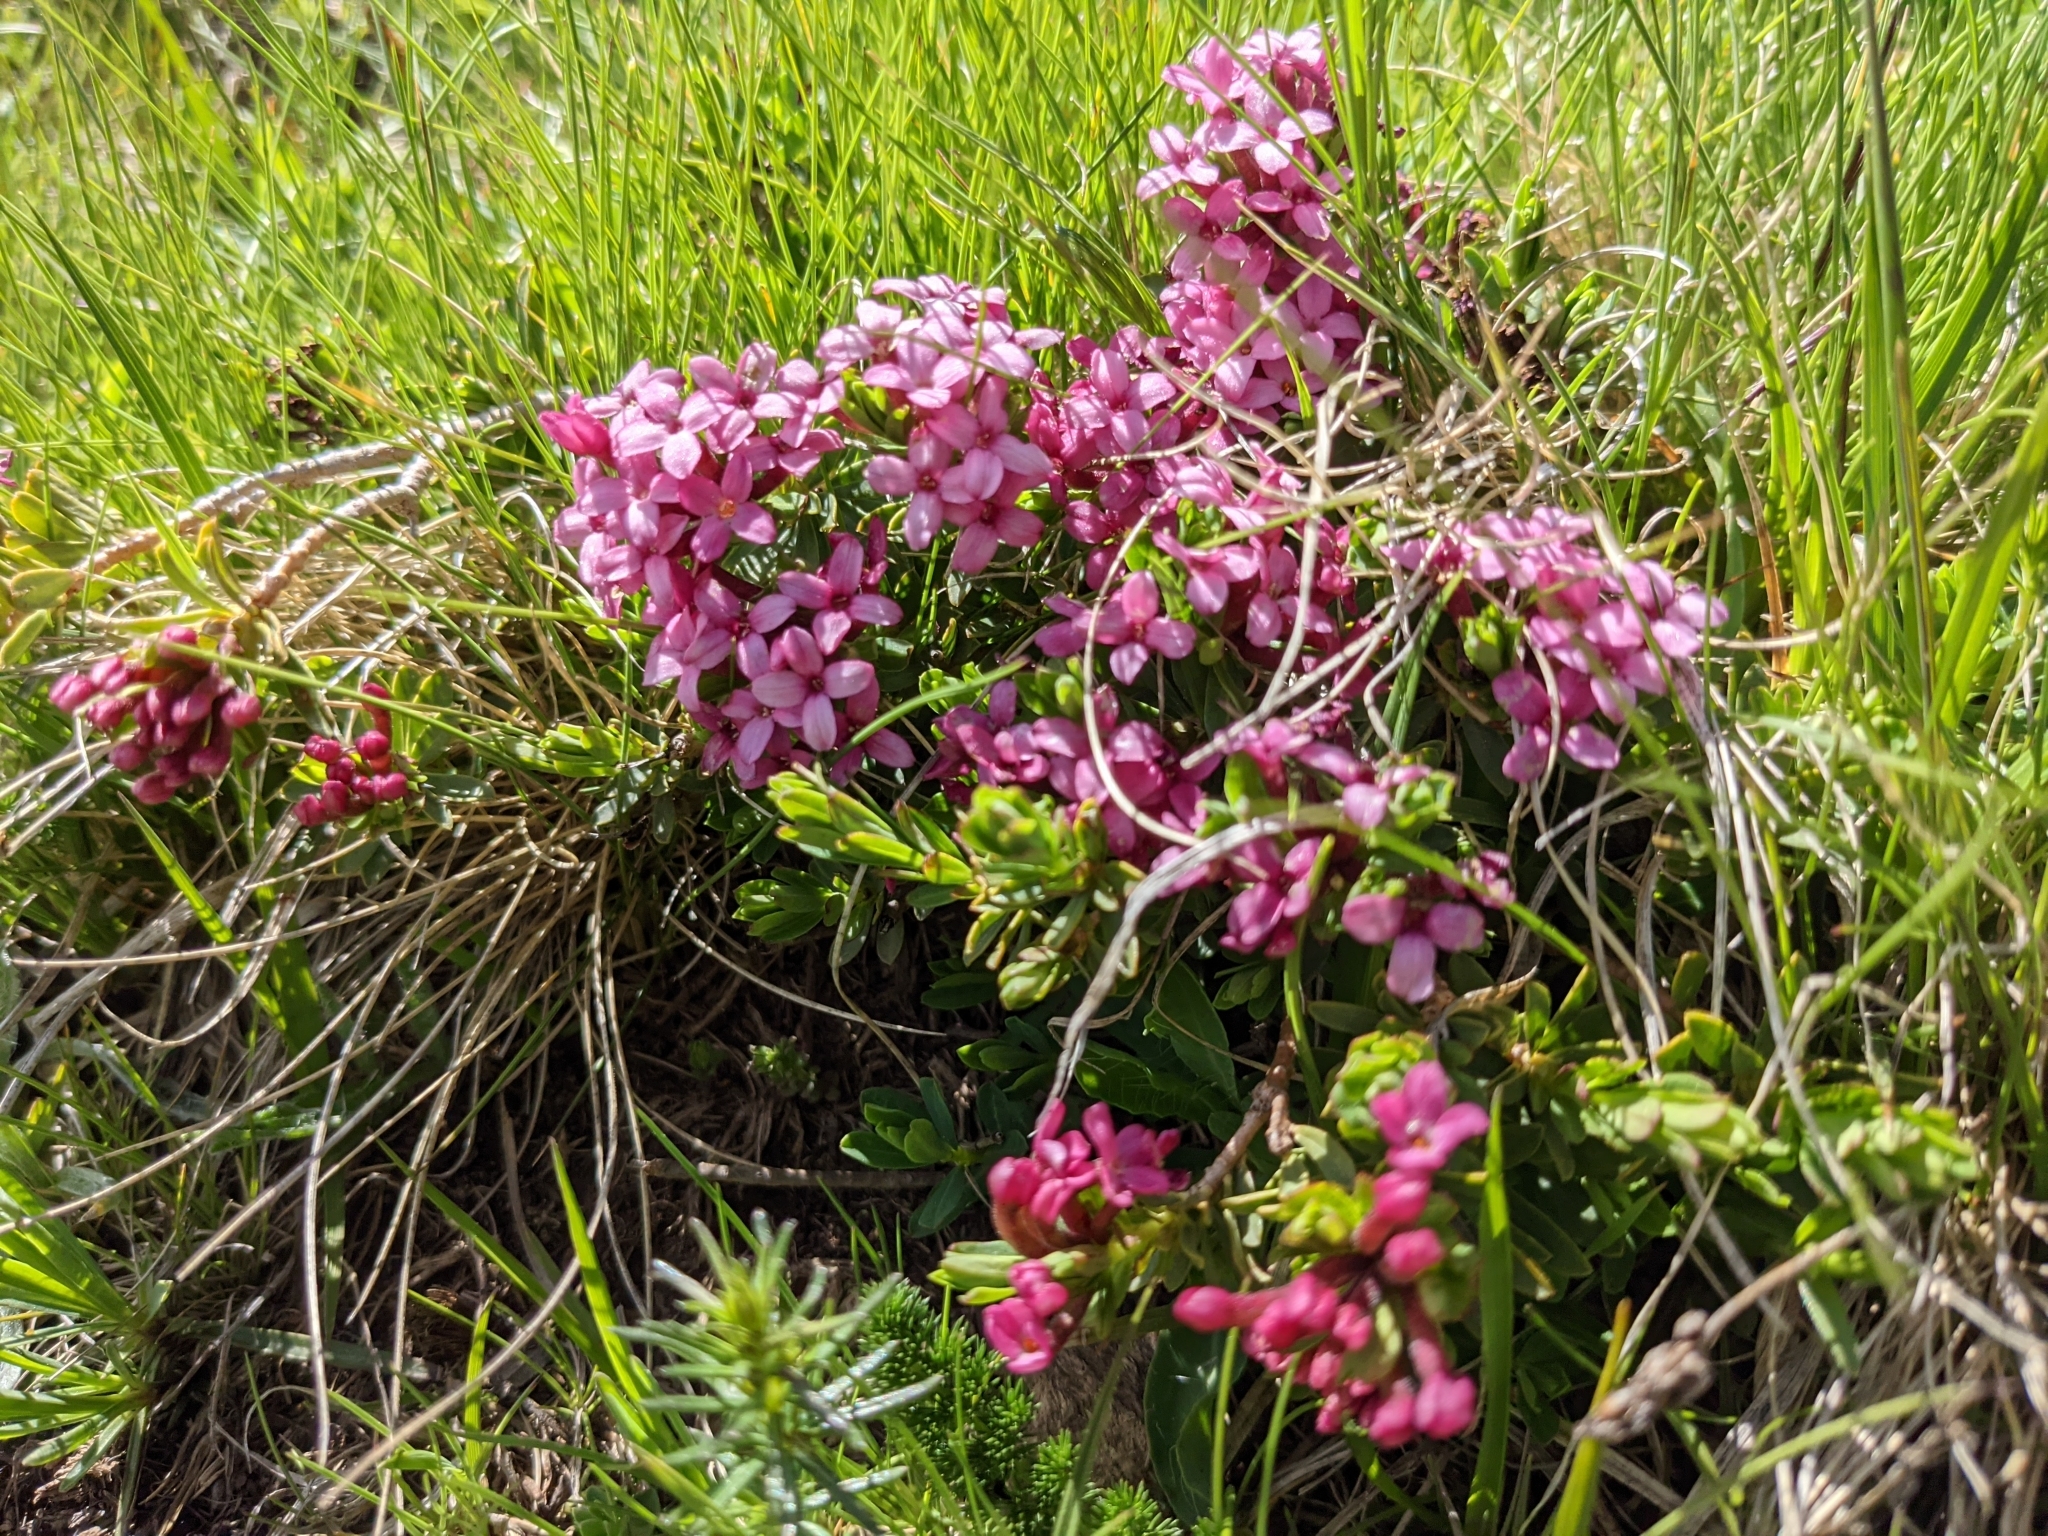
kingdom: Plantae
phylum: Tracheophyta
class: Magnoliopsida
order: Malvales
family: Thymelaeaceae
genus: Daphne
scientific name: Daphne cneorum
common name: Garland-flower
